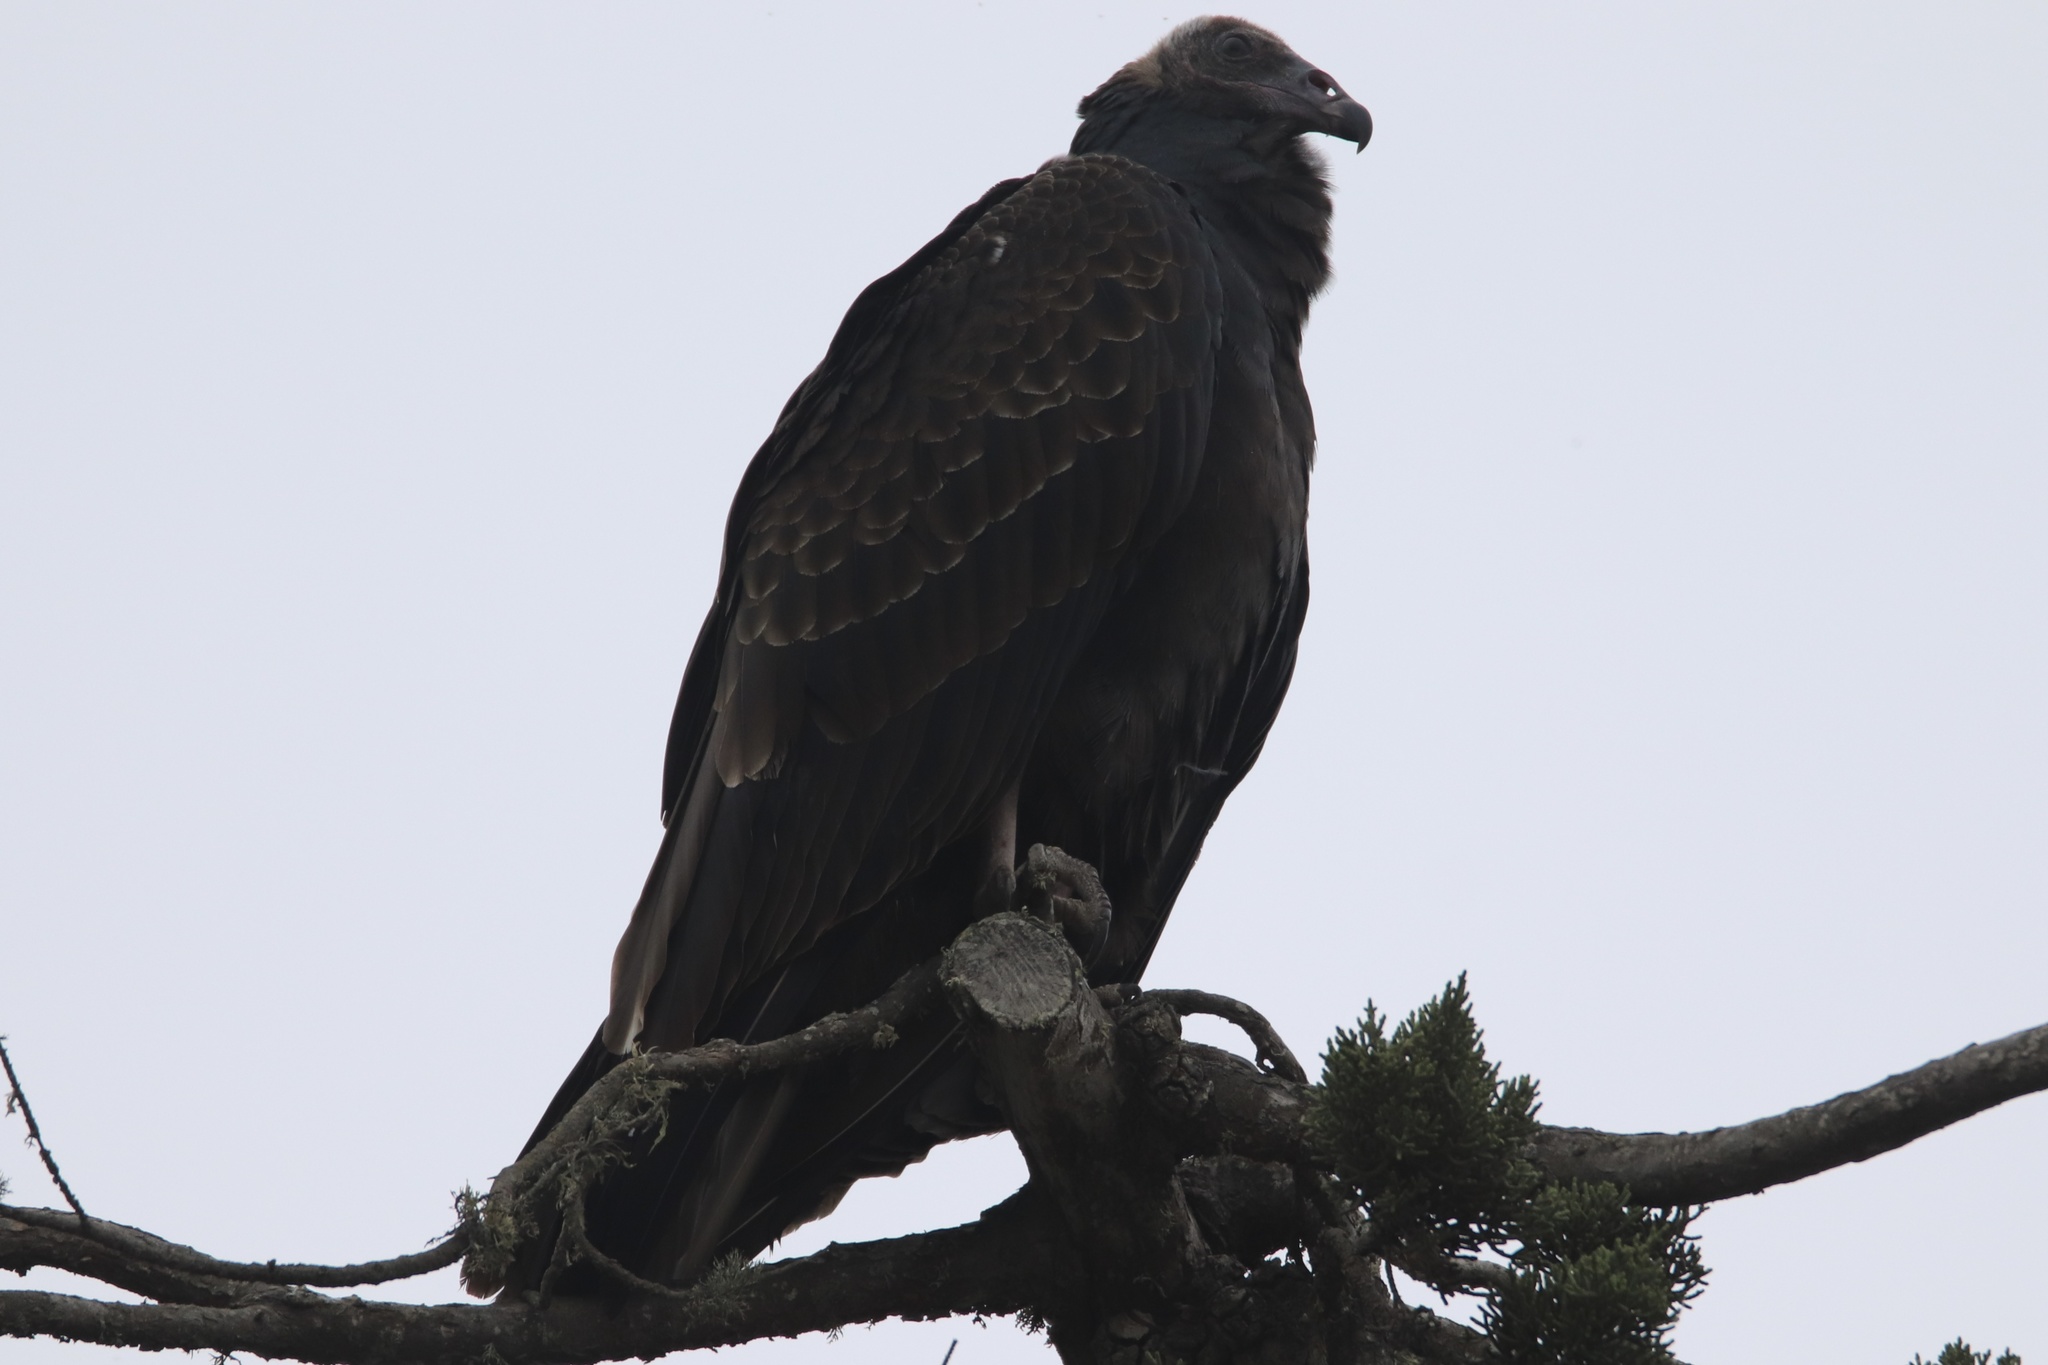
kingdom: Animalia
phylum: Chordata
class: Aves
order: Accipitriformes
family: Cathartidae
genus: Cathartes
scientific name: Cathartes aura
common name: Turkey vulture
